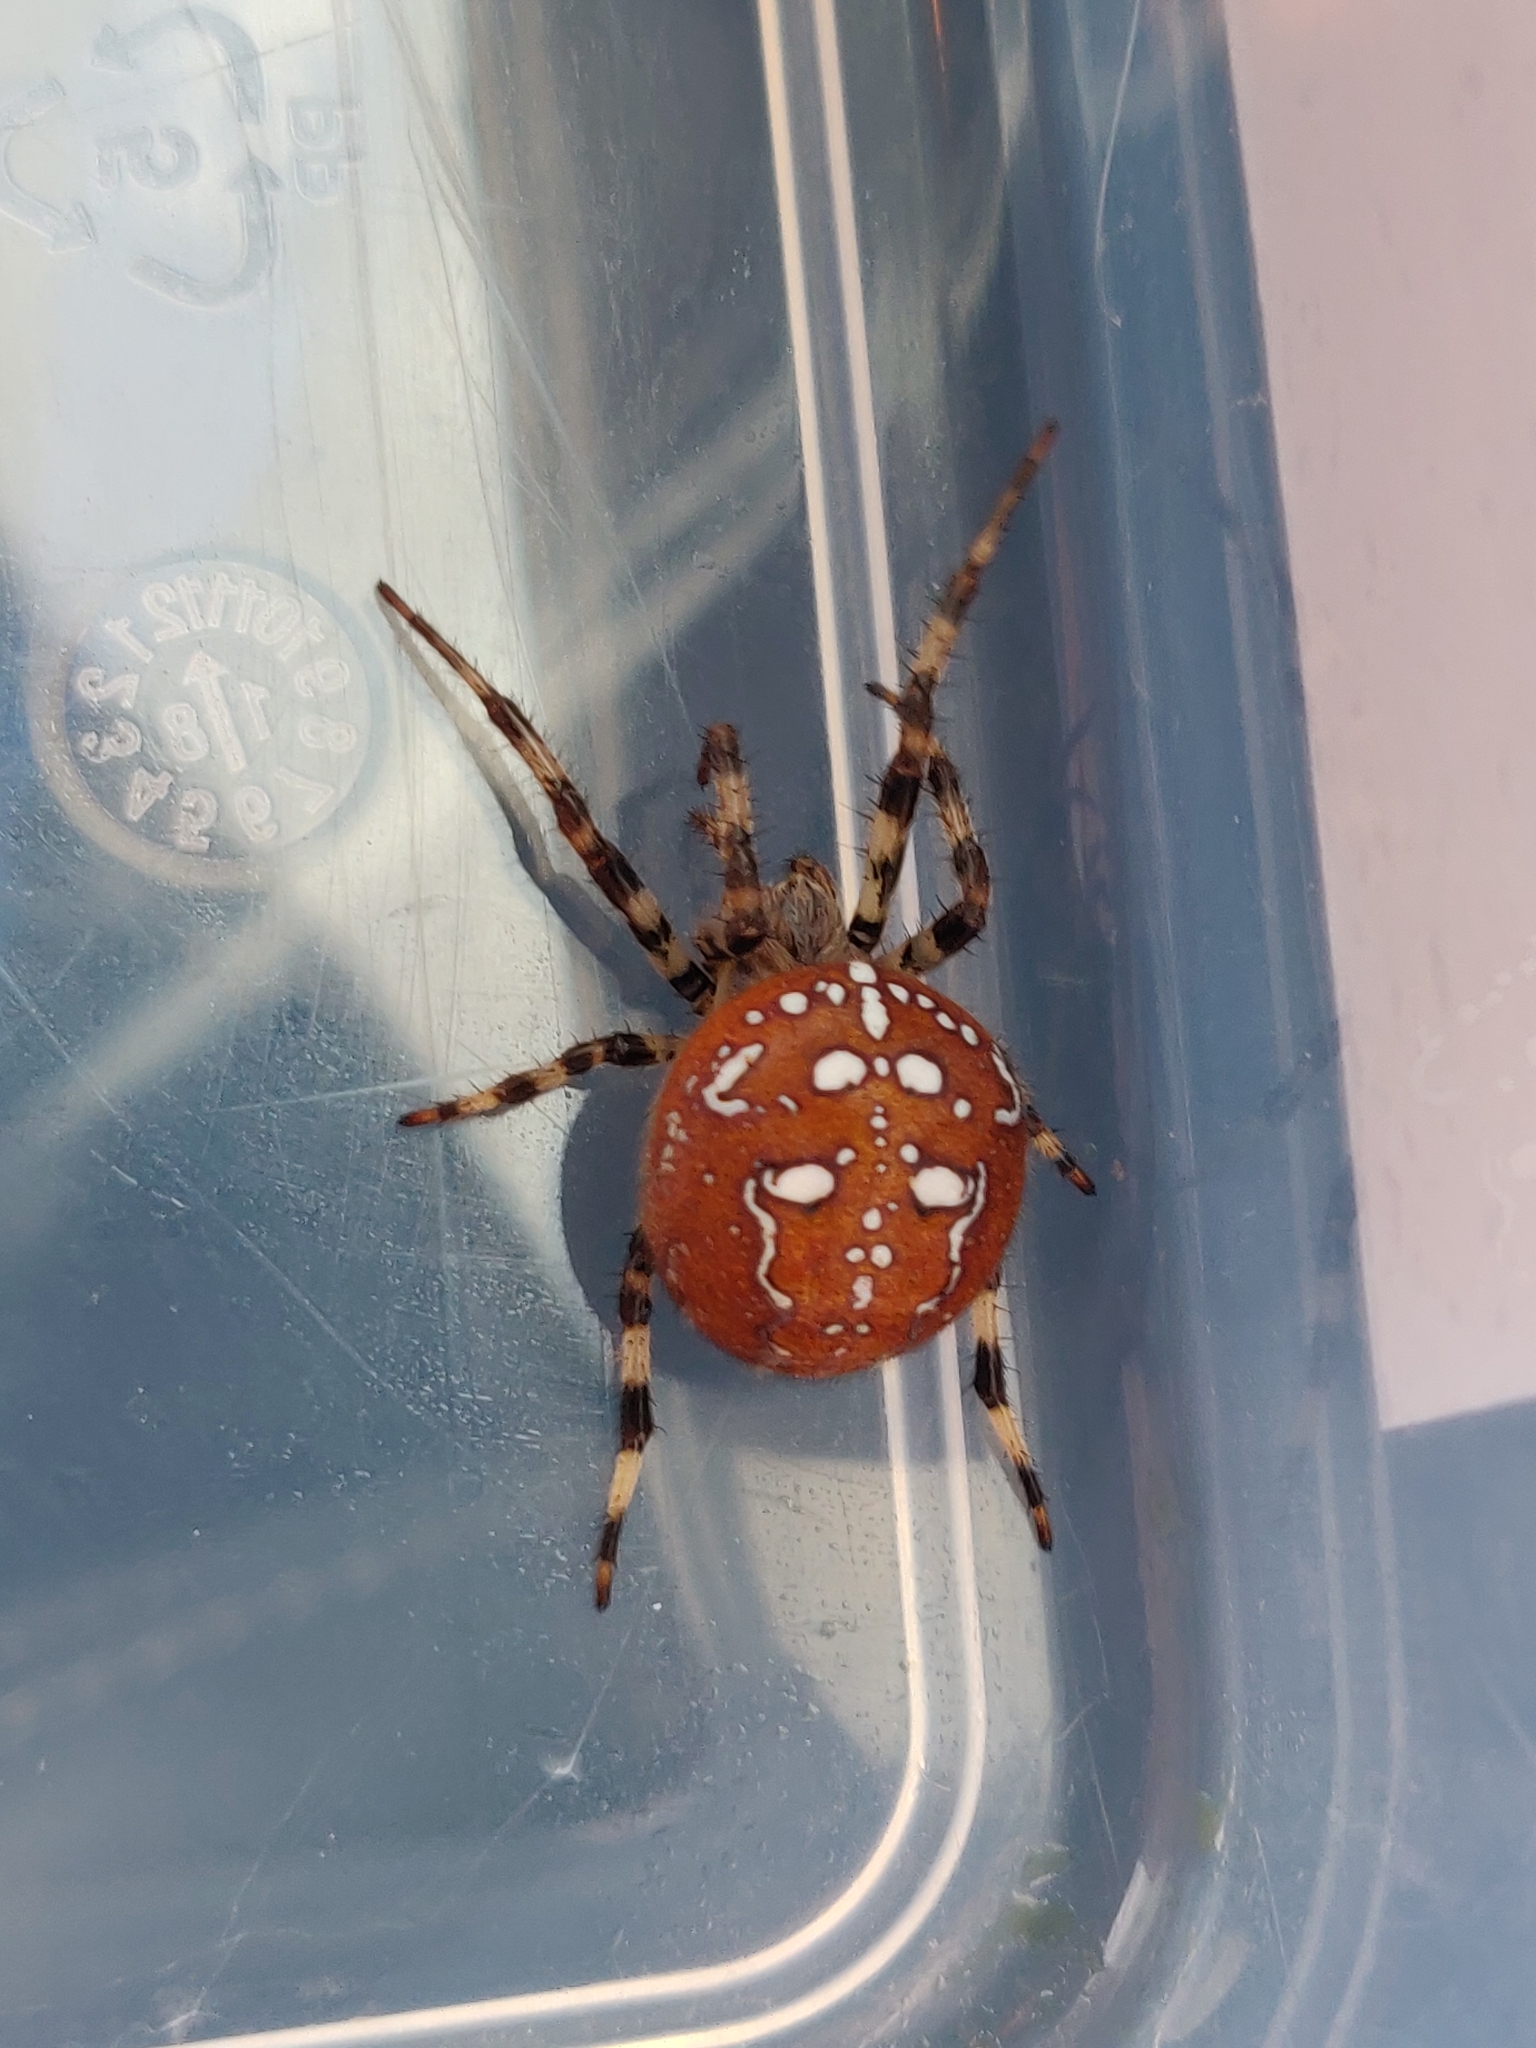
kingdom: Animalia
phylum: Arthropoda
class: Arachnida
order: Araneae
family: Araneidae
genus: Araneus
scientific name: Araneus quadratus
